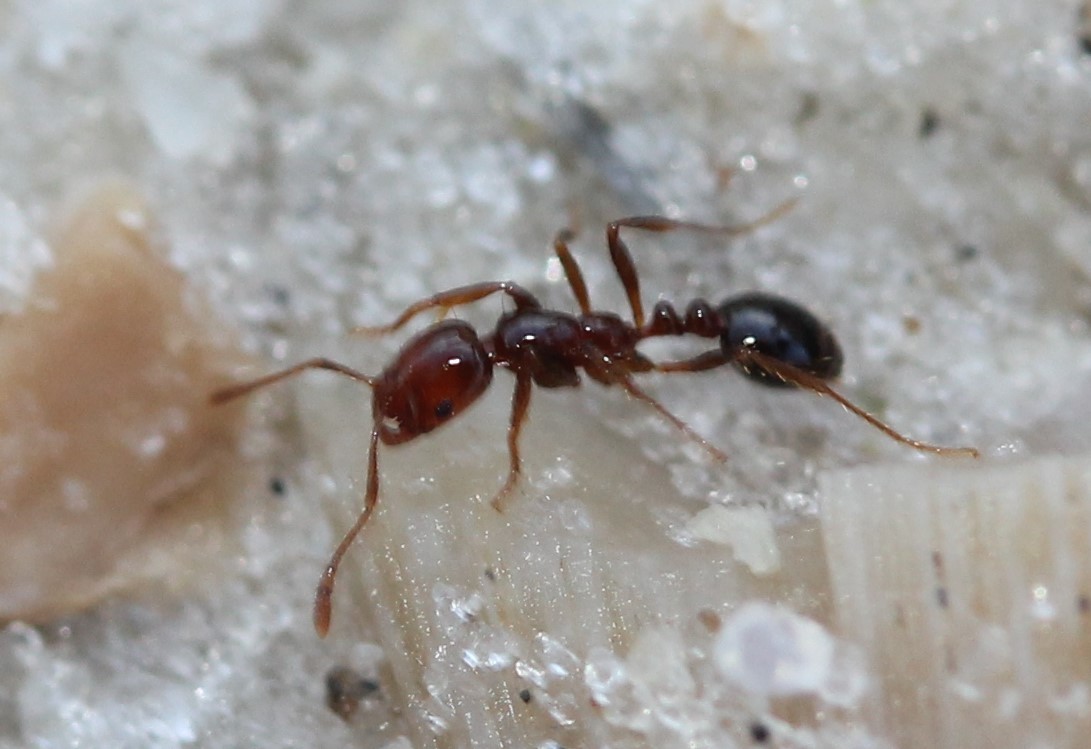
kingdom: Animalia
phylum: Arthropoda
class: Insecta
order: Hymenoptera
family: Formicidae
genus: Solenopsis
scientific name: Solenopsis invicta
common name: Red imported fire ant
